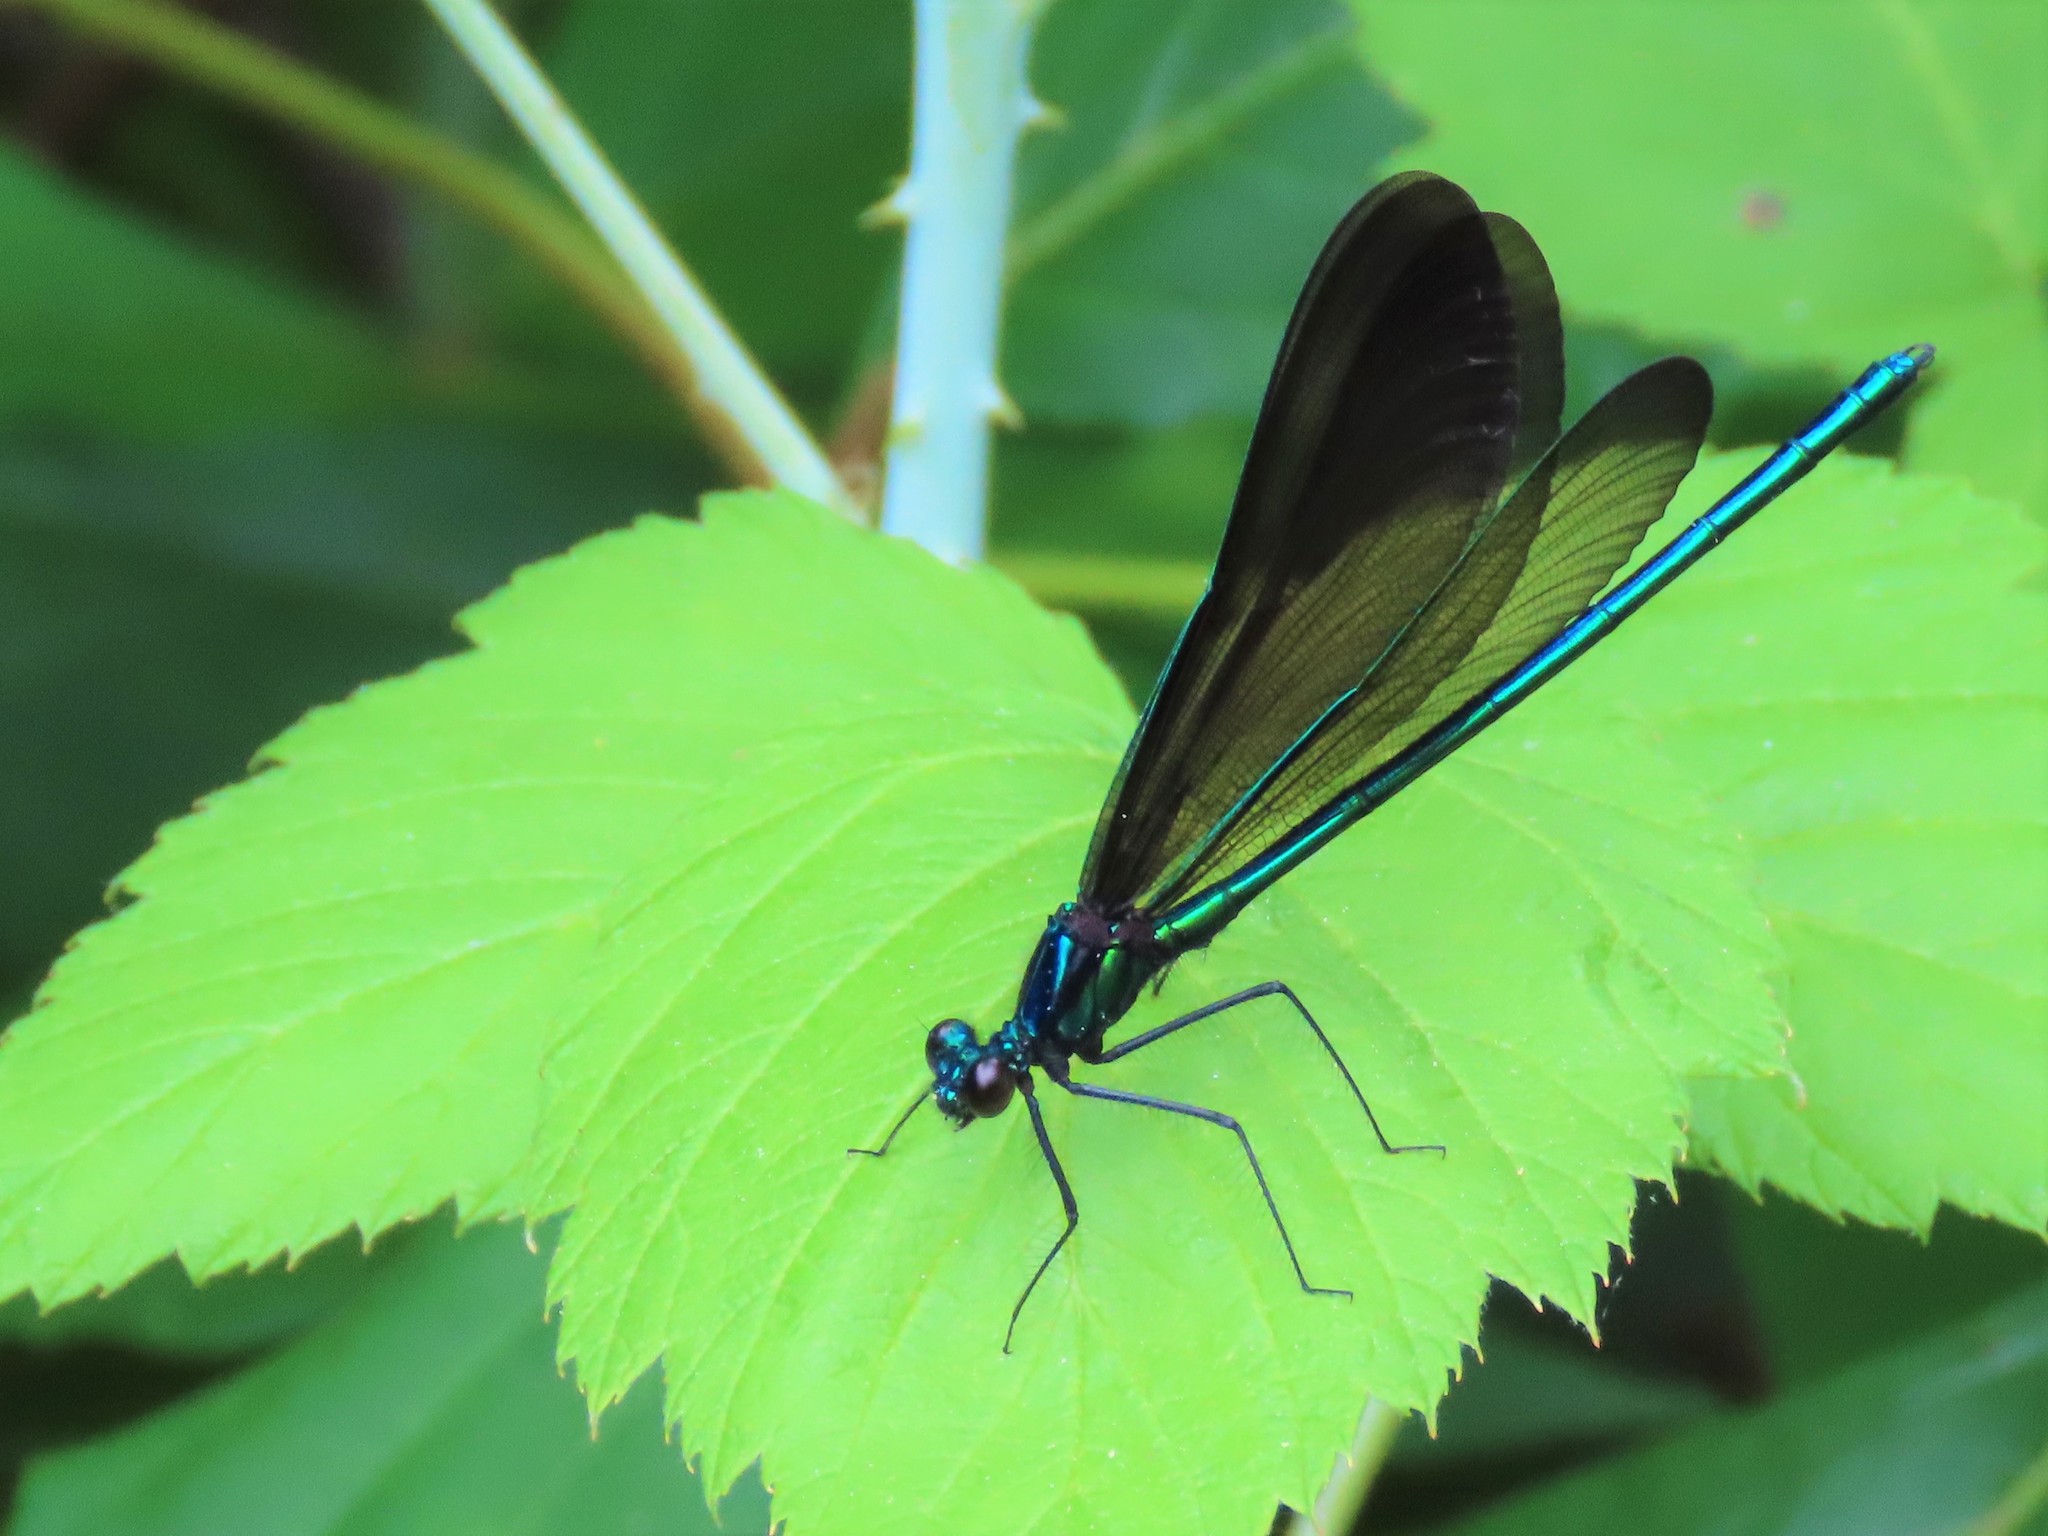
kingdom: Animalia
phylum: Arthropoda
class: Insecta
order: Odonata
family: Calopterygidae
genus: Calopteryx
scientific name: Calopteryx maculata
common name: Ebony jewelwing
